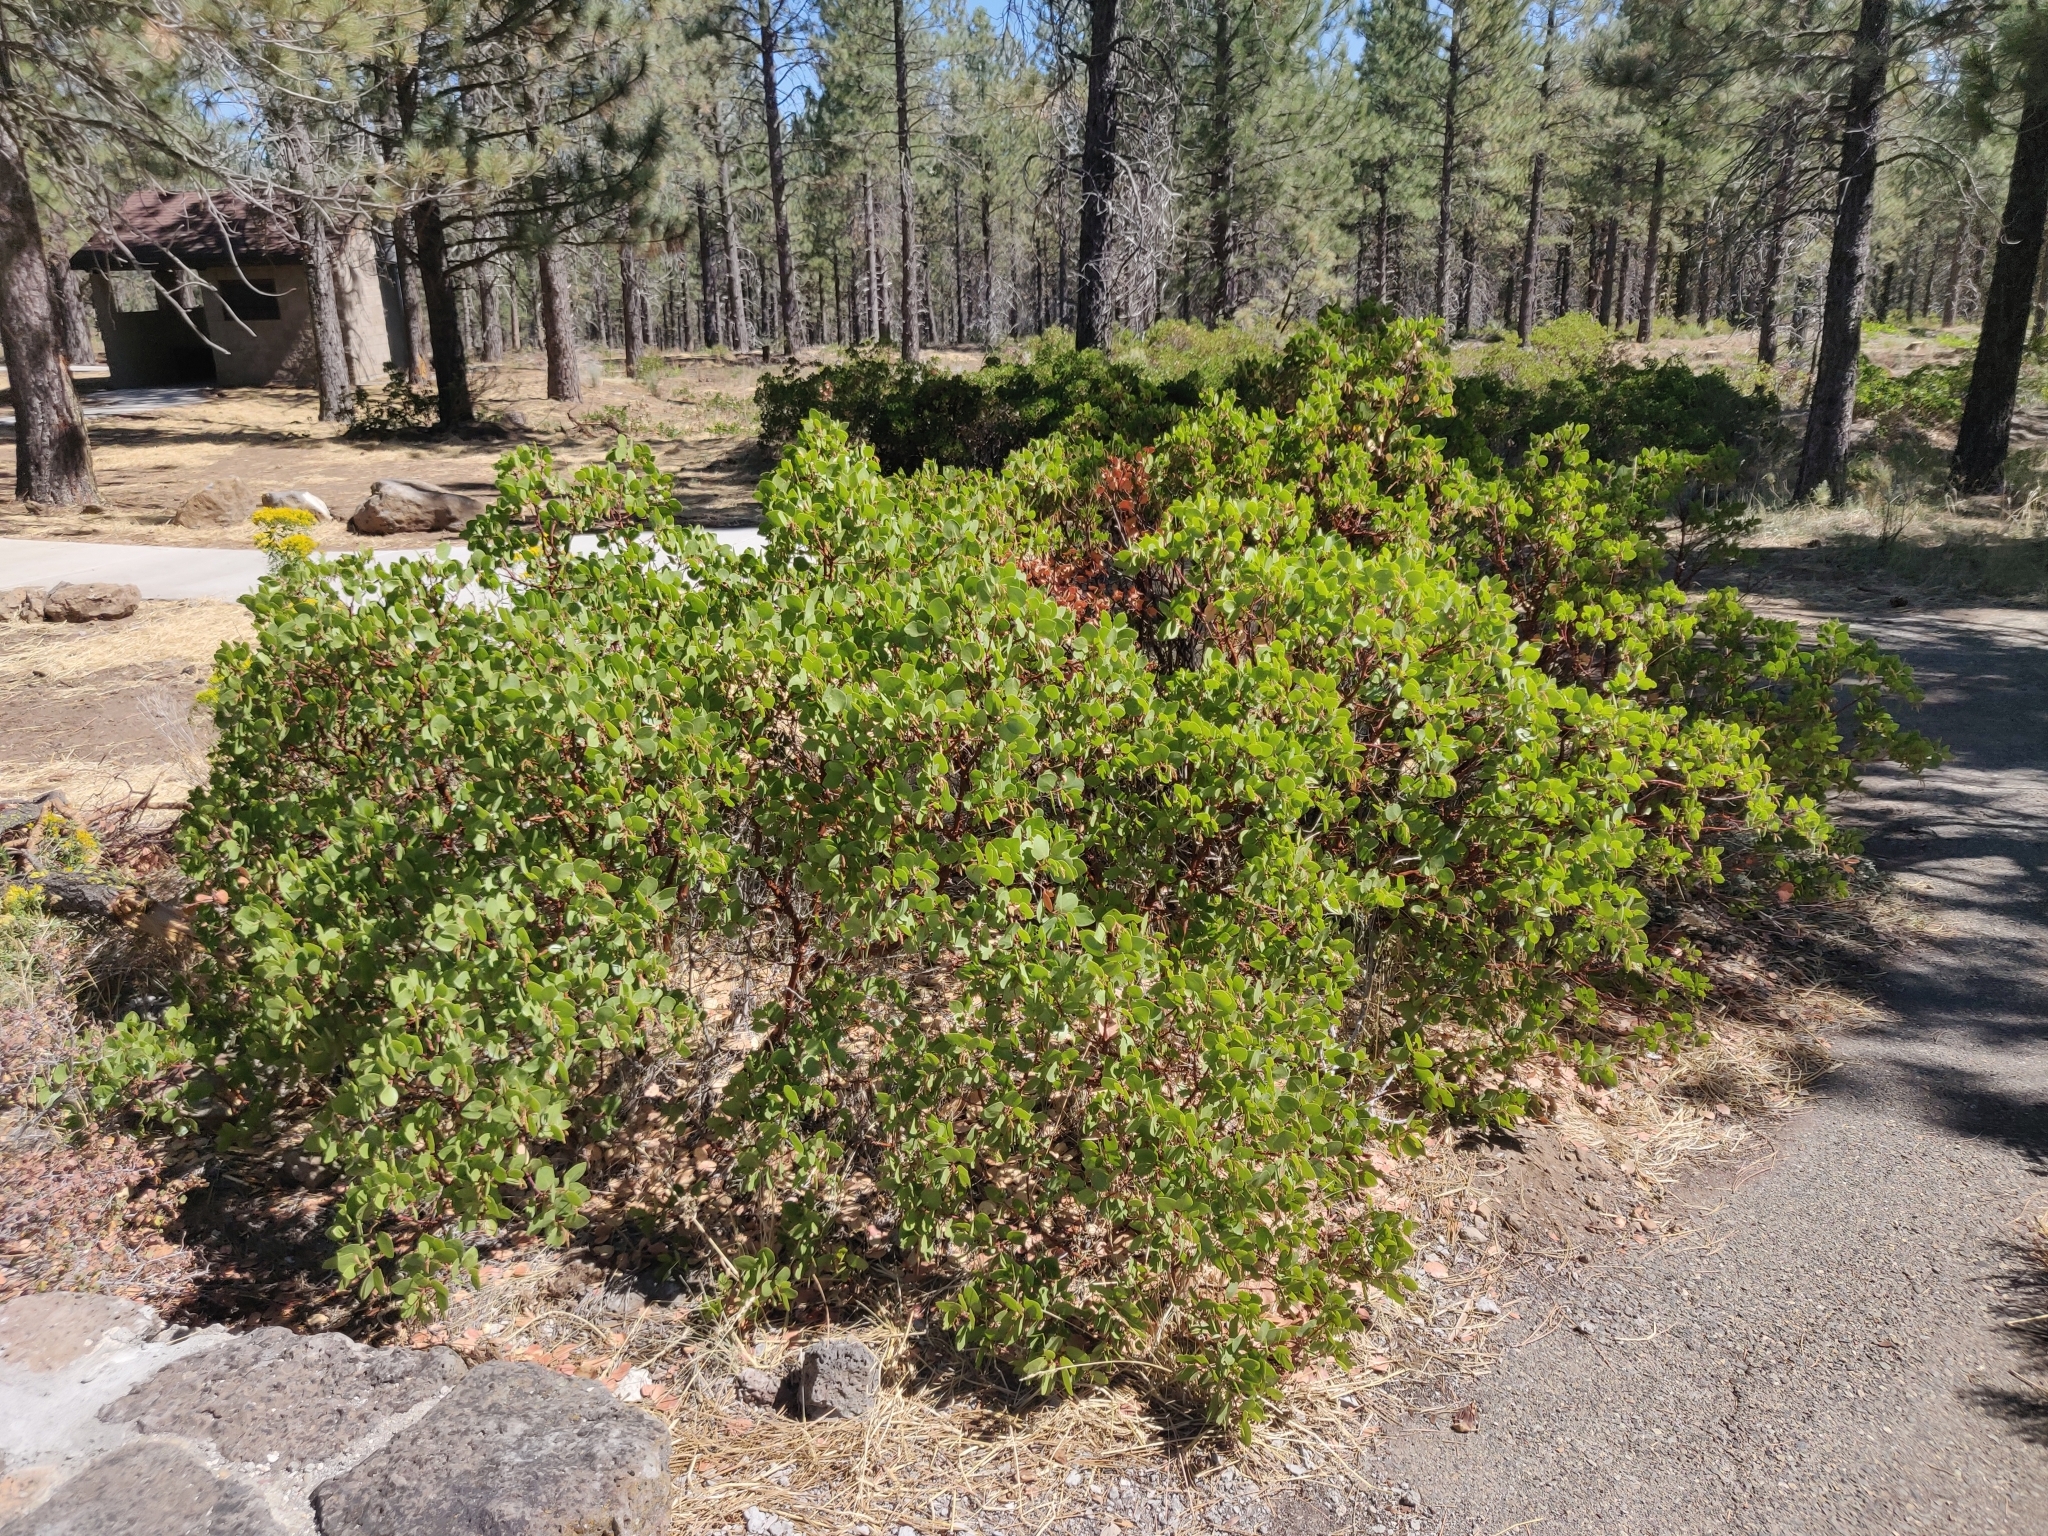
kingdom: Plantae
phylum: Tracheophyta
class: Magnoliopsida
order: Ericales
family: Ericaceae
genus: Arctostaphylos
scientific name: Arctostaphylos patula
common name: Green-leaf manzanita
